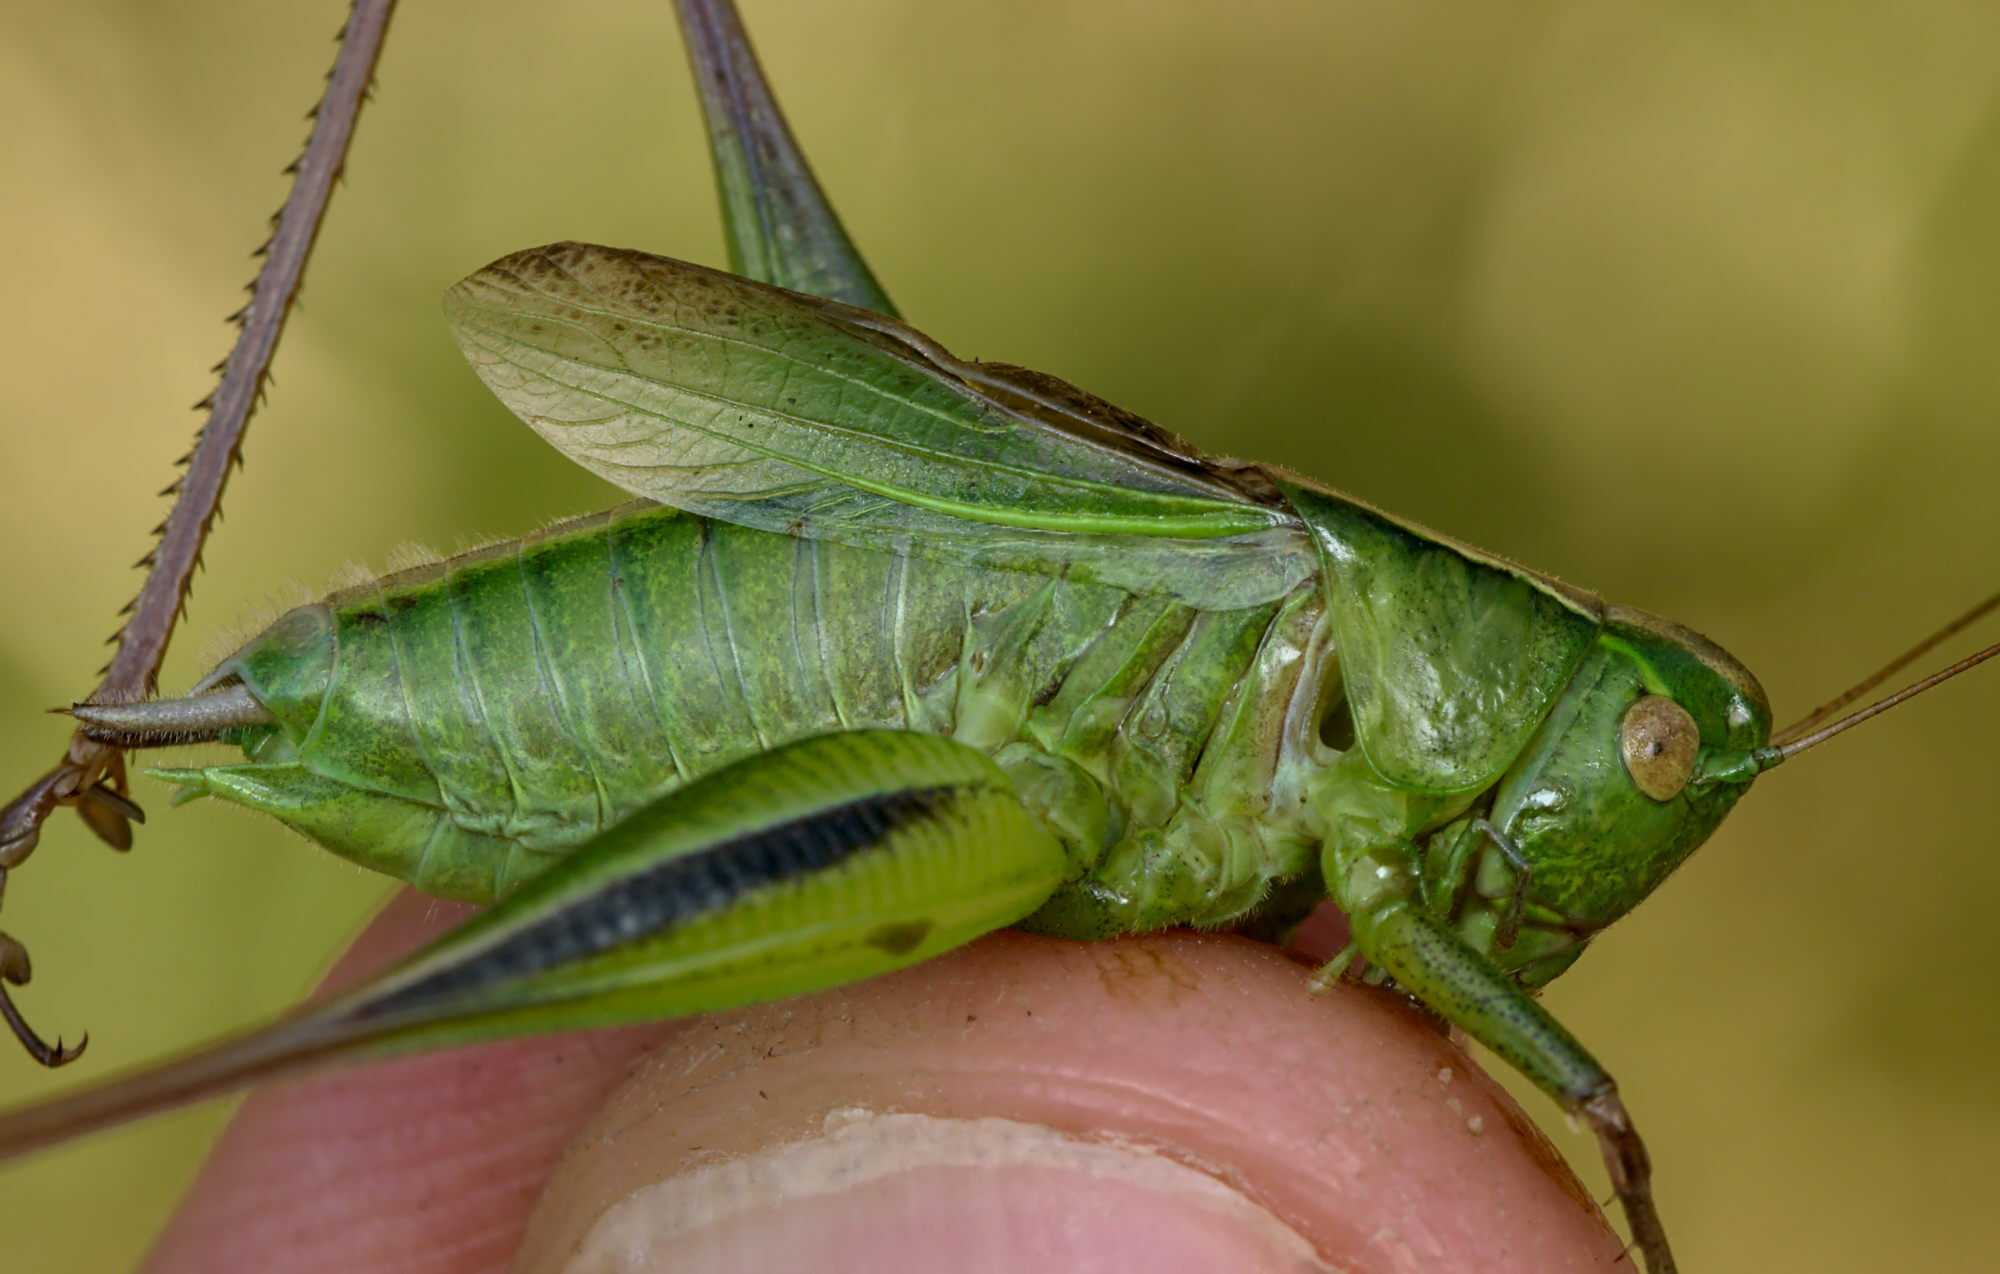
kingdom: Animalia
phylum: Arthropoda
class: Insecta
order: Orthoptera
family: Tettigoniidae
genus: Bicolorana
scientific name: Bicolorana bicolor
